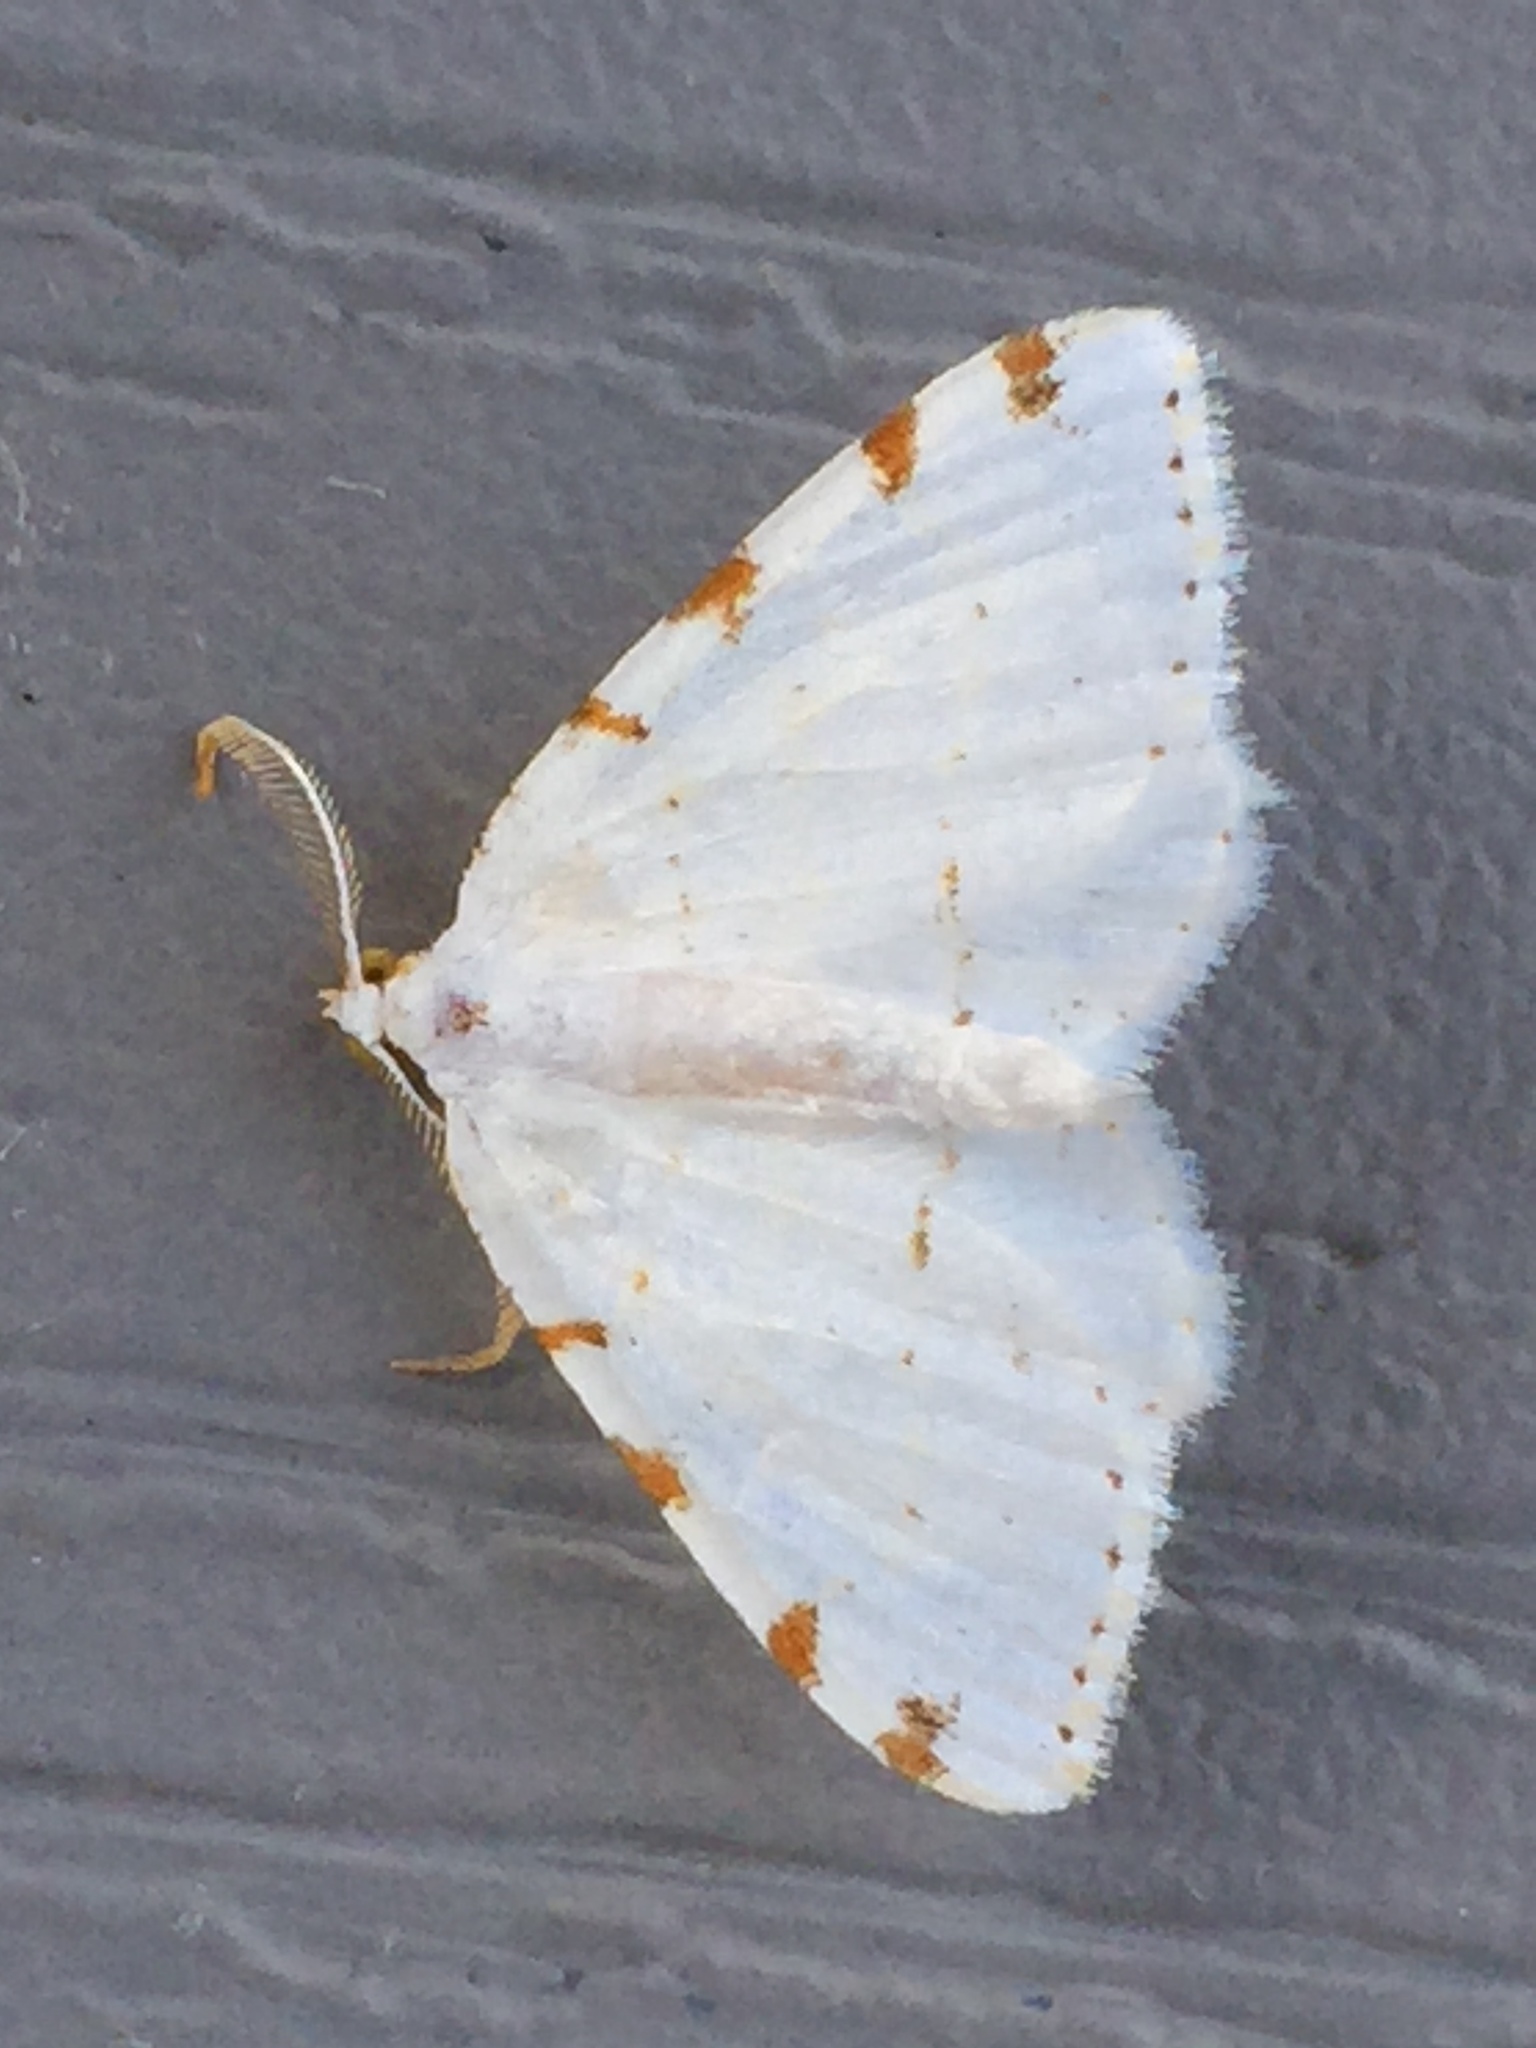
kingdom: Animalia
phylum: Arthropoda
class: Insecta
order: Lepidoptera
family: Geometridae
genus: Macaria
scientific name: Macaria pustularia
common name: Lesser maple spanworm moth
